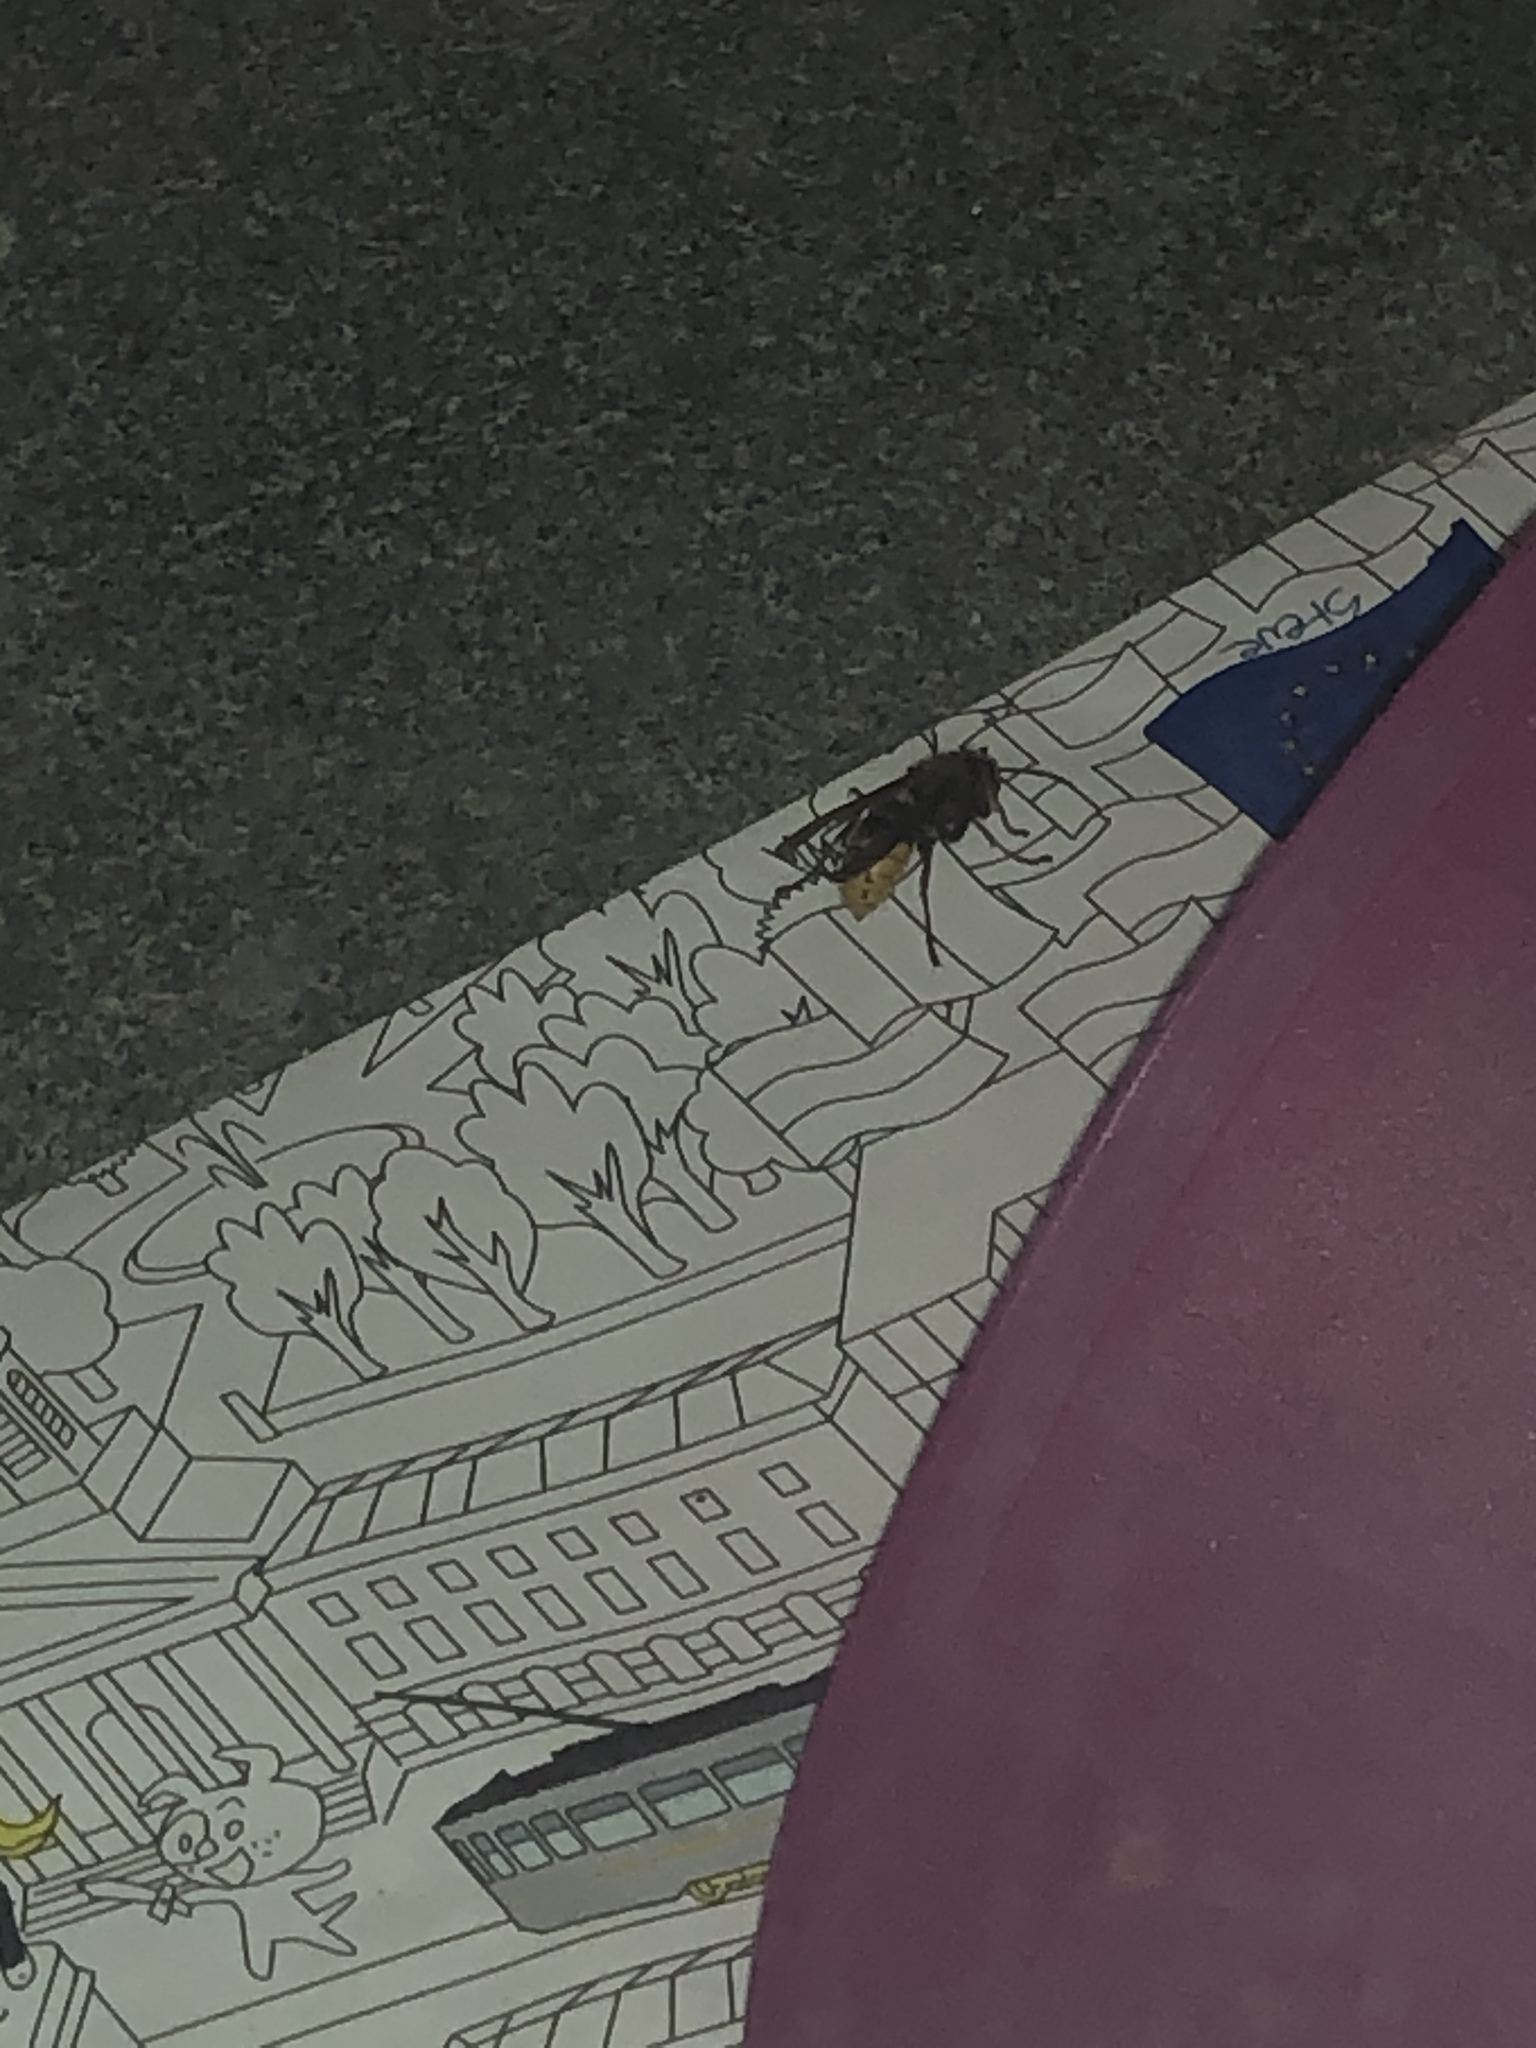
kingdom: Animalia
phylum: Arthropoda
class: Insecta
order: Hymenoptera
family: Vespidae
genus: Vespa
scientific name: Vespa crabro
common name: Hornet
